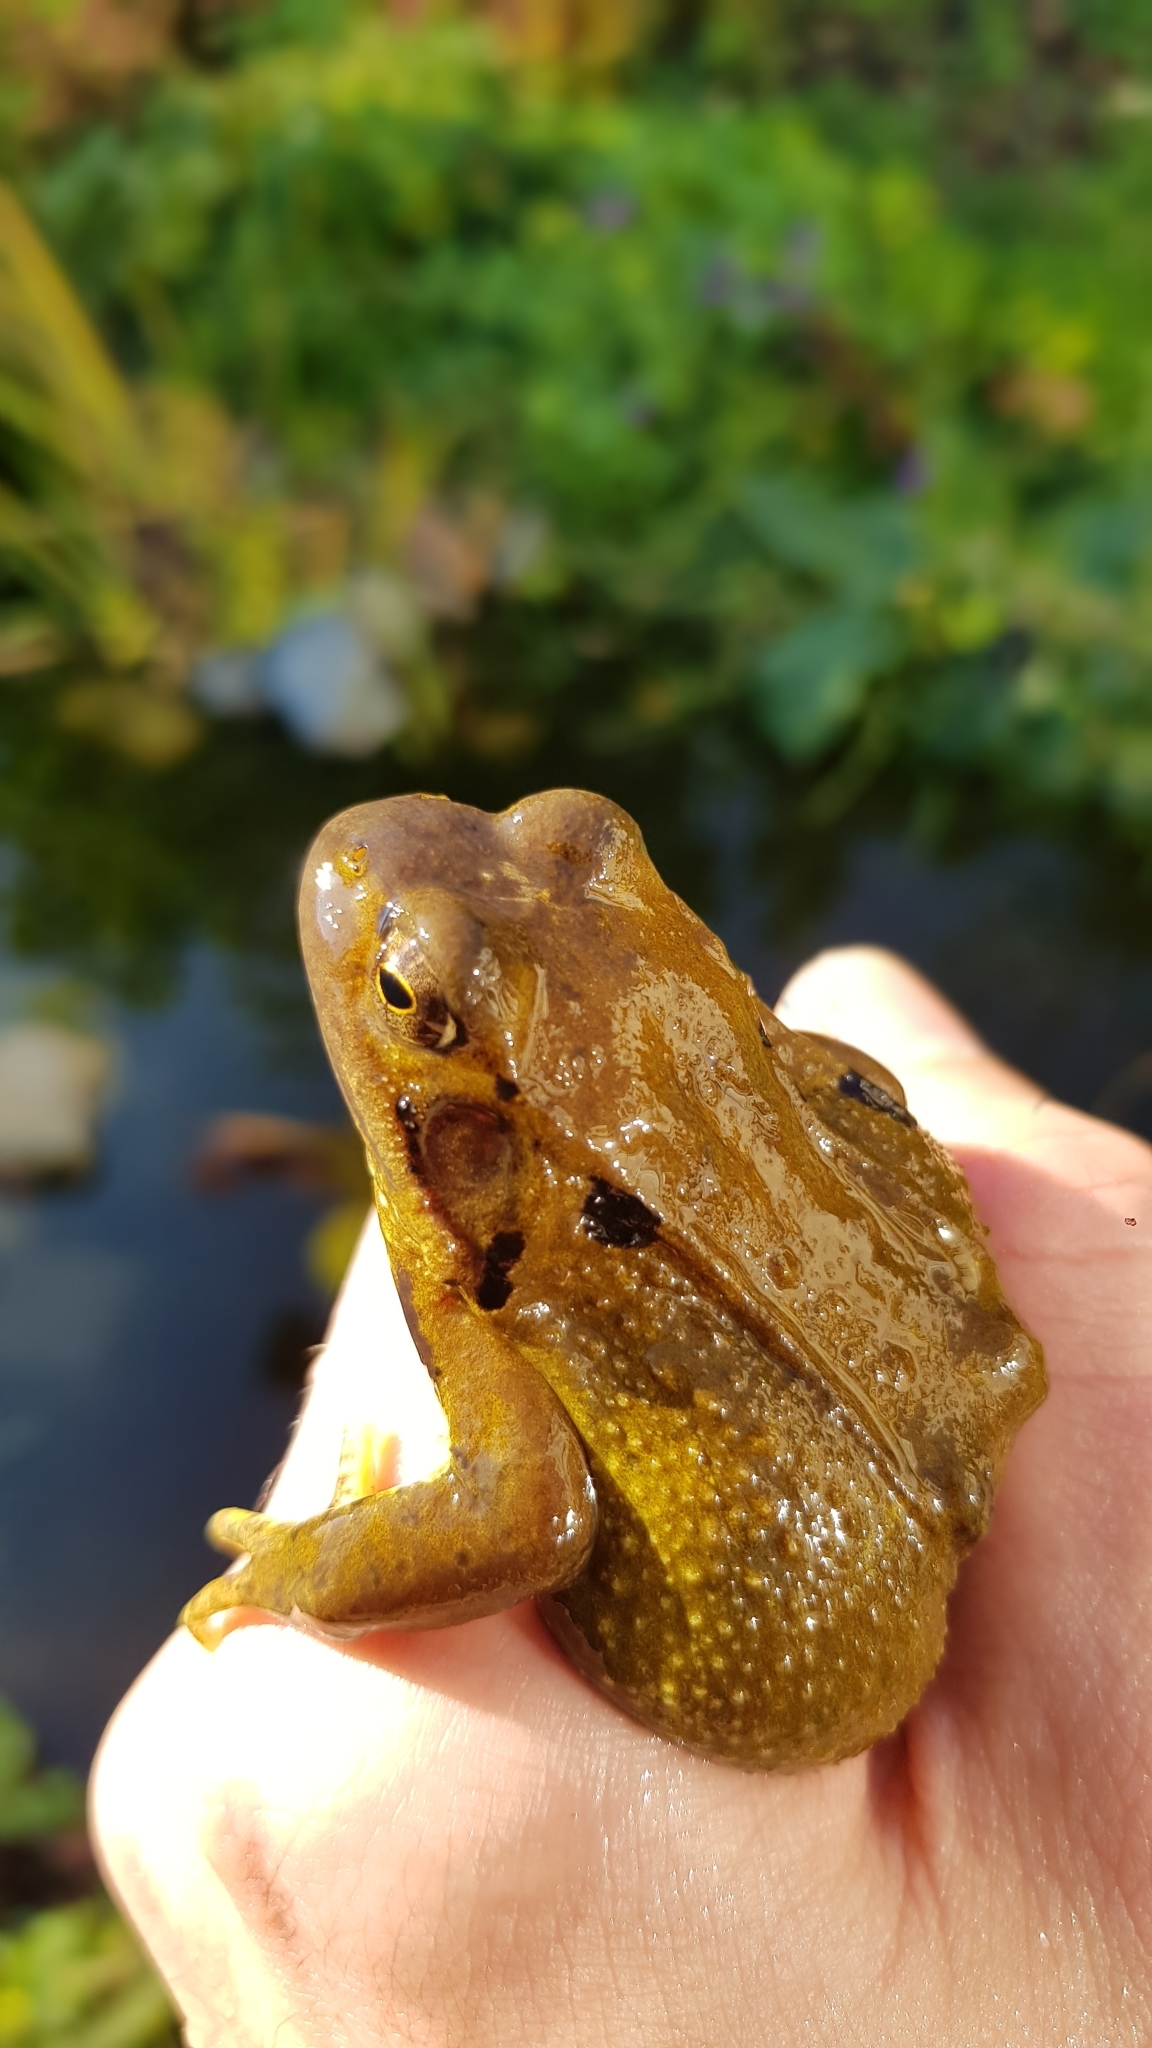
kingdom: Animalia
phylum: Chordata
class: Amphibia
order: Anura
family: Ranidae
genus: Rana
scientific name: Rana temporaria
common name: Common frog
